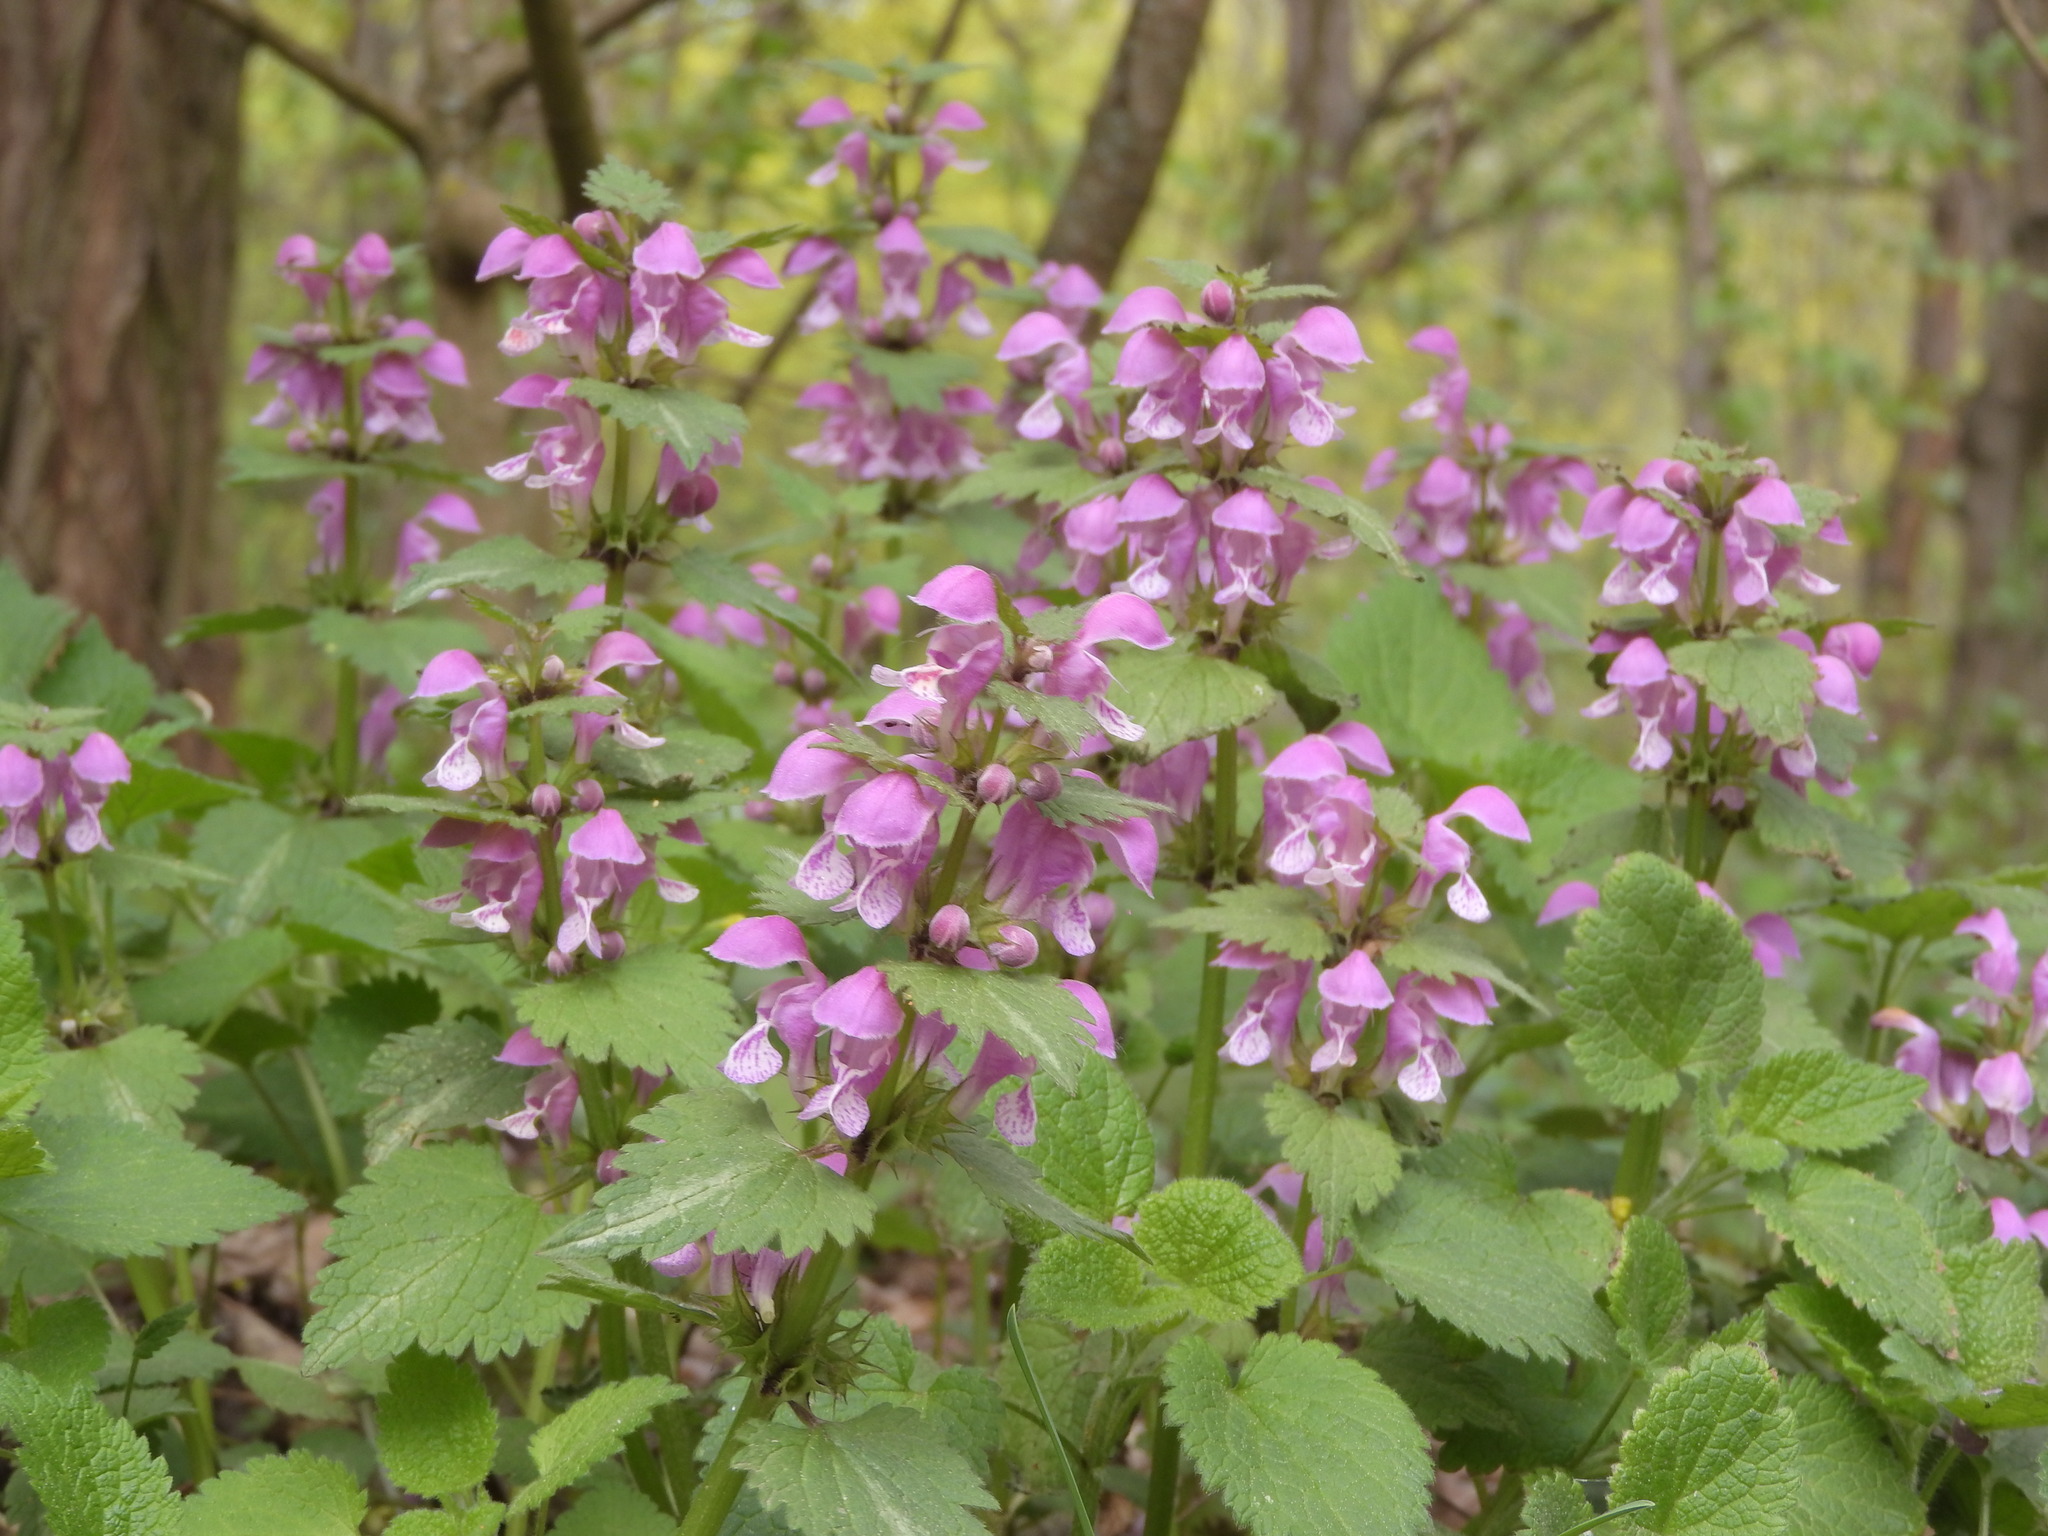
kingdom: Plantae
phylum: Tracheophyta
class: Magnoliopsida
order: Lamiales
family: Lamiaceae
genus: Lamium
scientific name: Lamium maculatum
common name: Spotted dead-nettle
